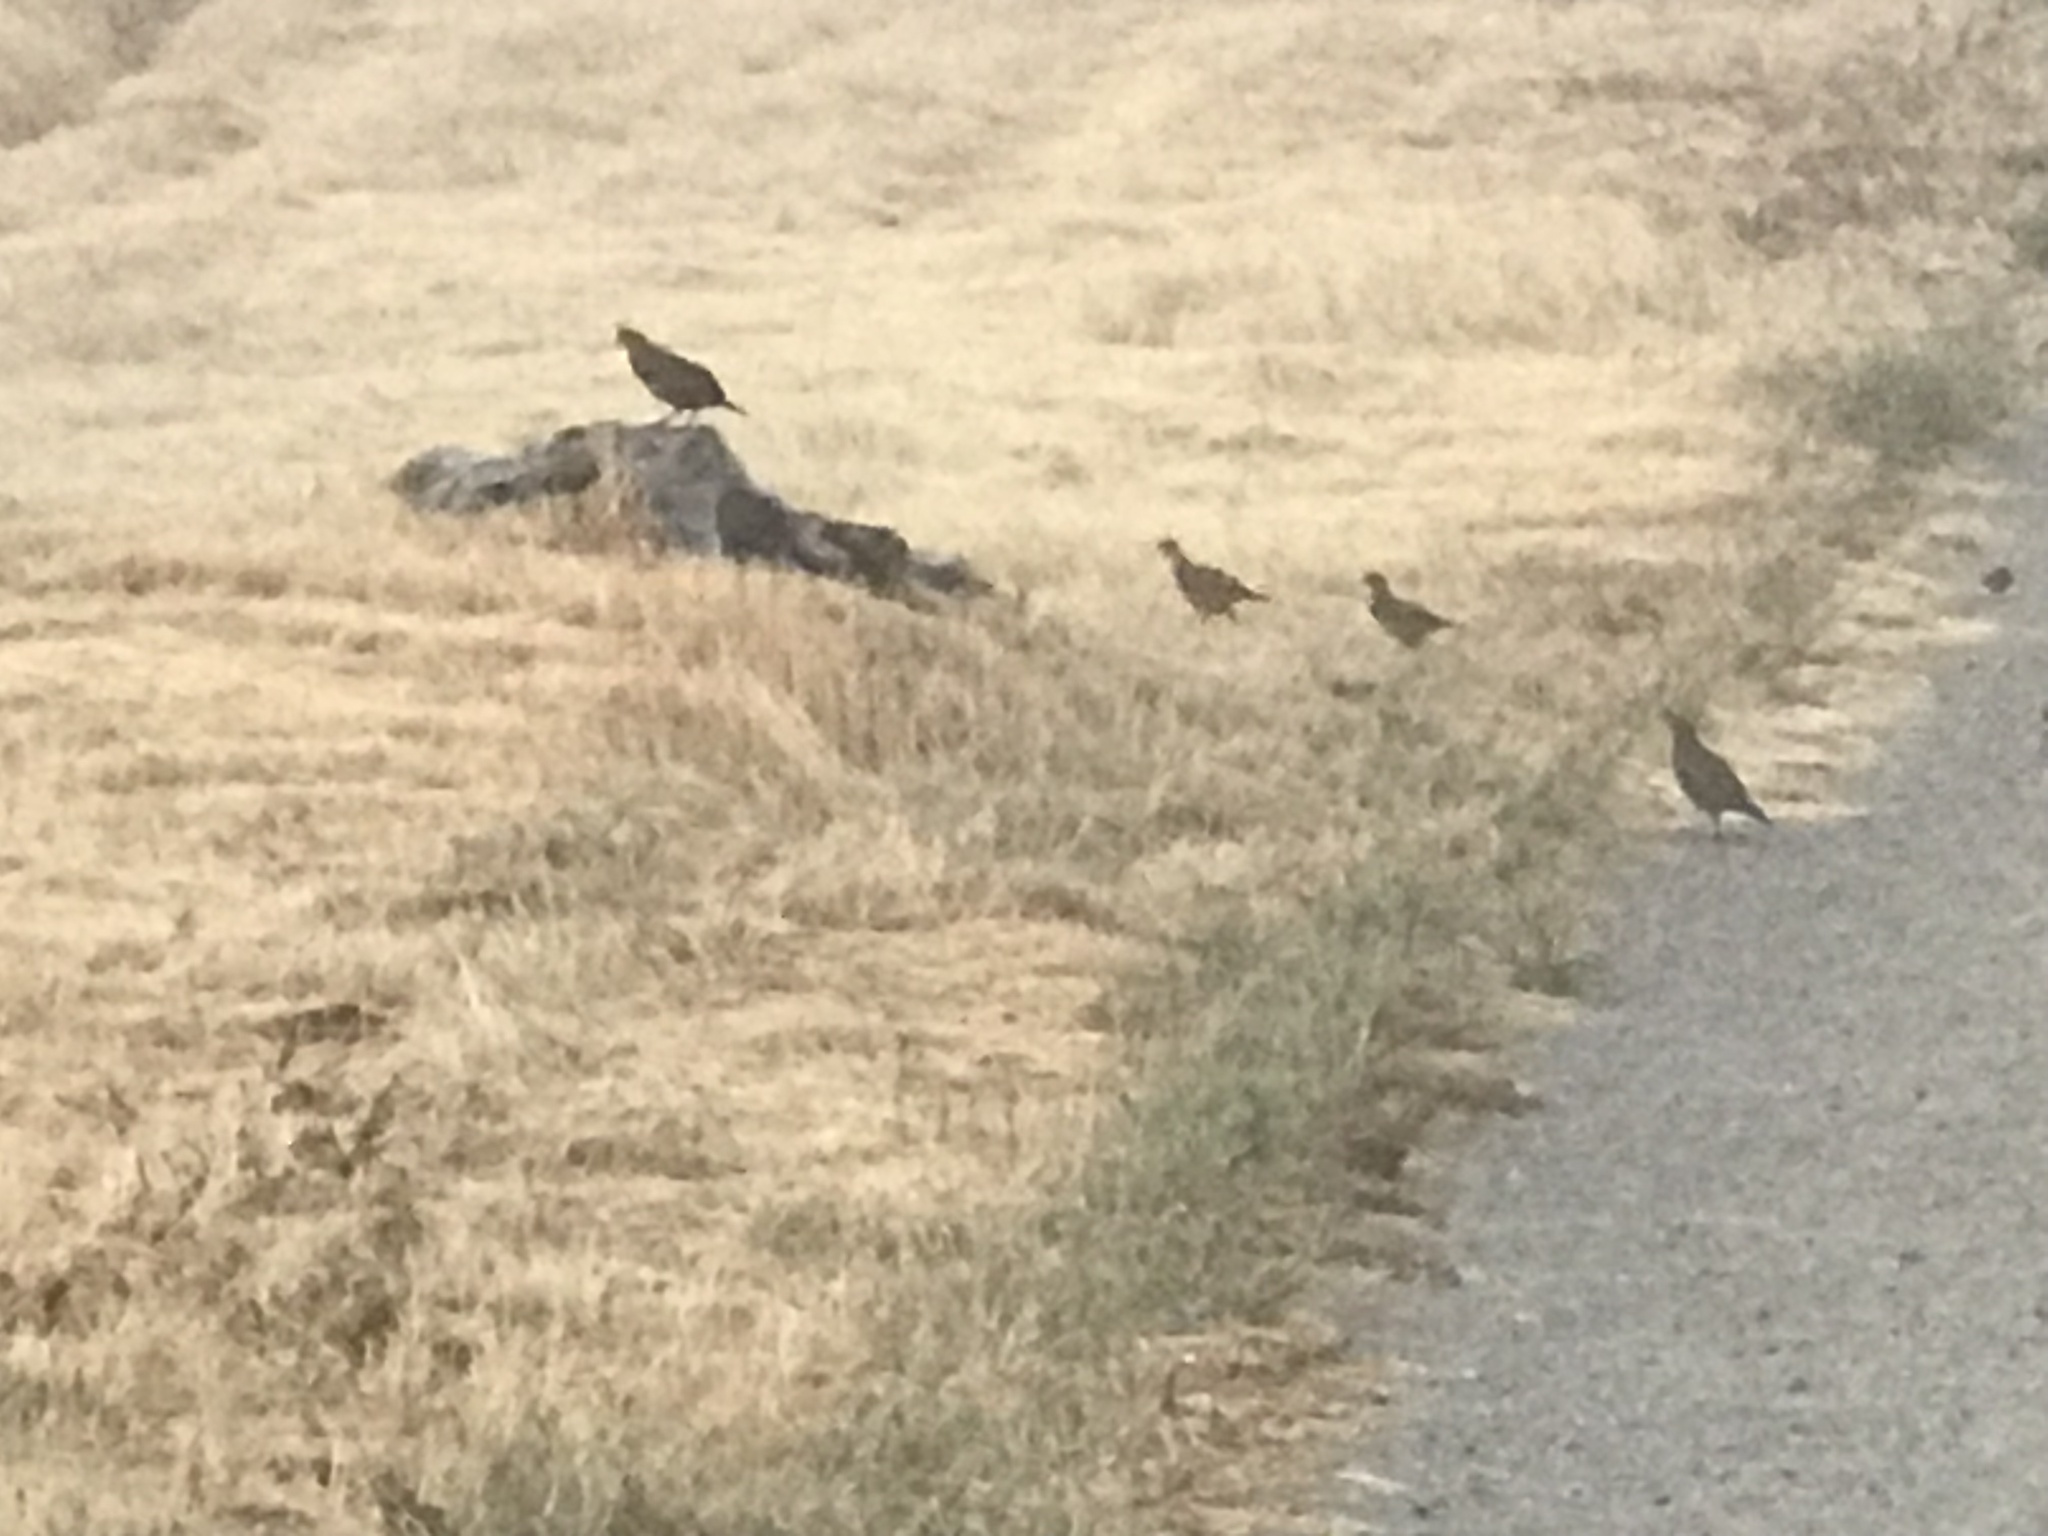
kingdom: Animalia
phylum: Chordata
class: Aves
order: Galliformes
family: Odontophoridae
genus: Callipepla
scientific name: Callipepla californica
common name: California quail
